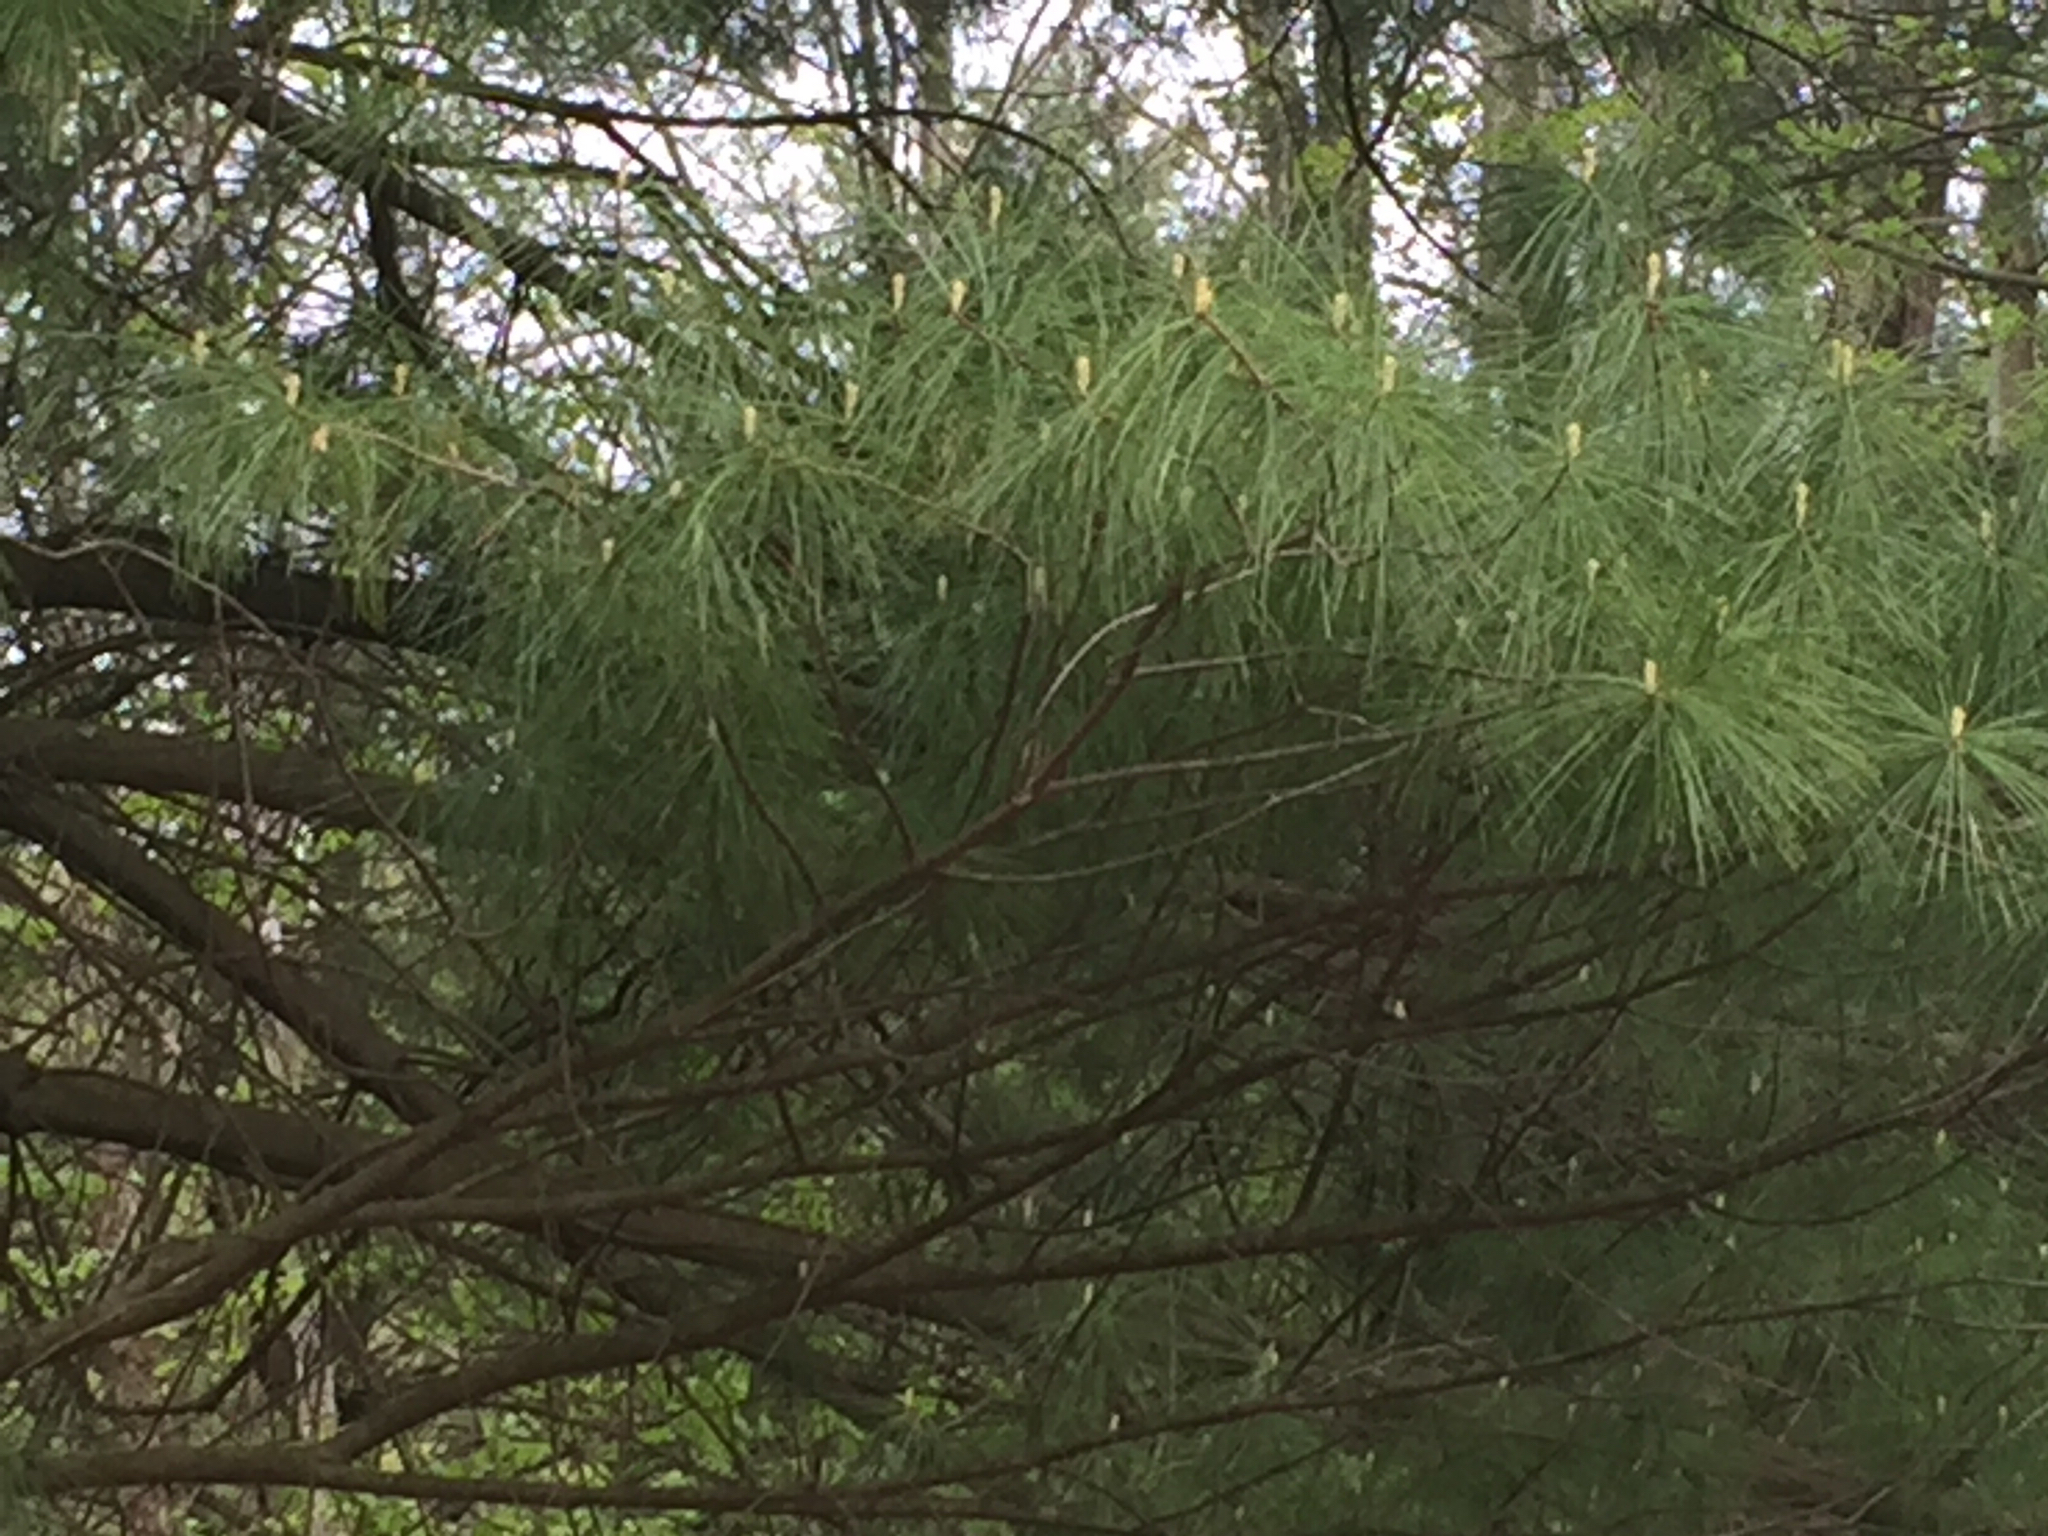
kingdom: Plantae
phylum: Tracheophyta
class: Pinopsida
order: Pinales
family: Pinaceae
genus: Pinus
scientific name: Pinus strobus
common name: Weymouth pine
